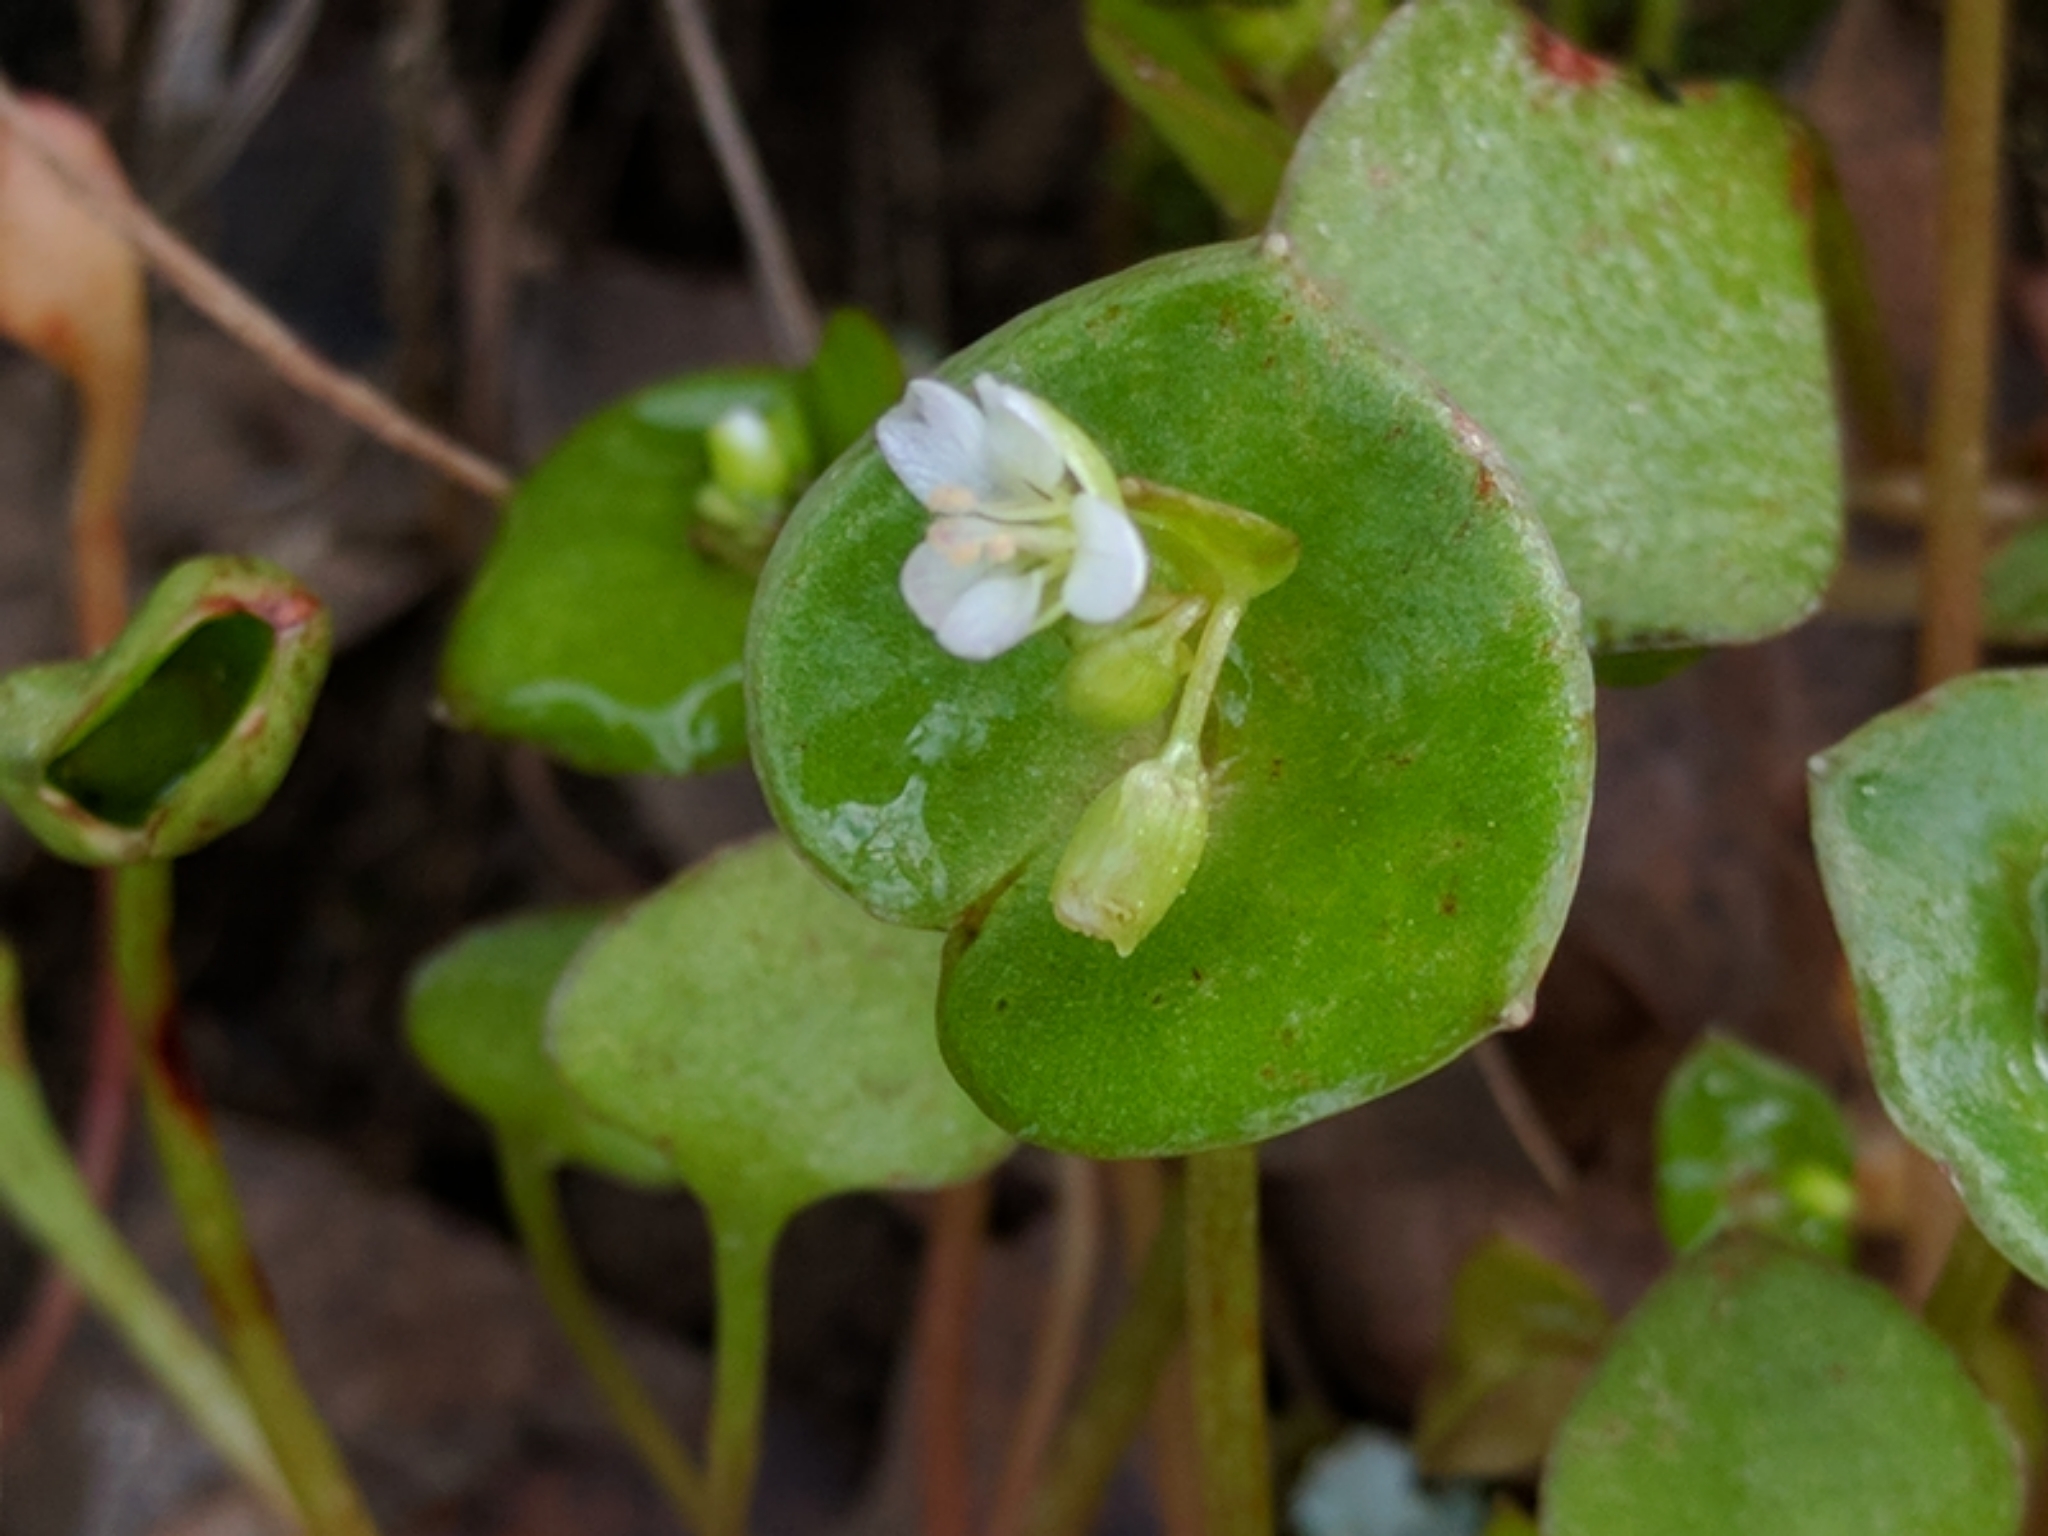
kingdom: Plantae
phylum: Tracheophyta
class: Magnoliopsida
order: Caryophyllales
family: Montiaceae
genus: Claytonia
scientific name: Claytonia perfoliata
